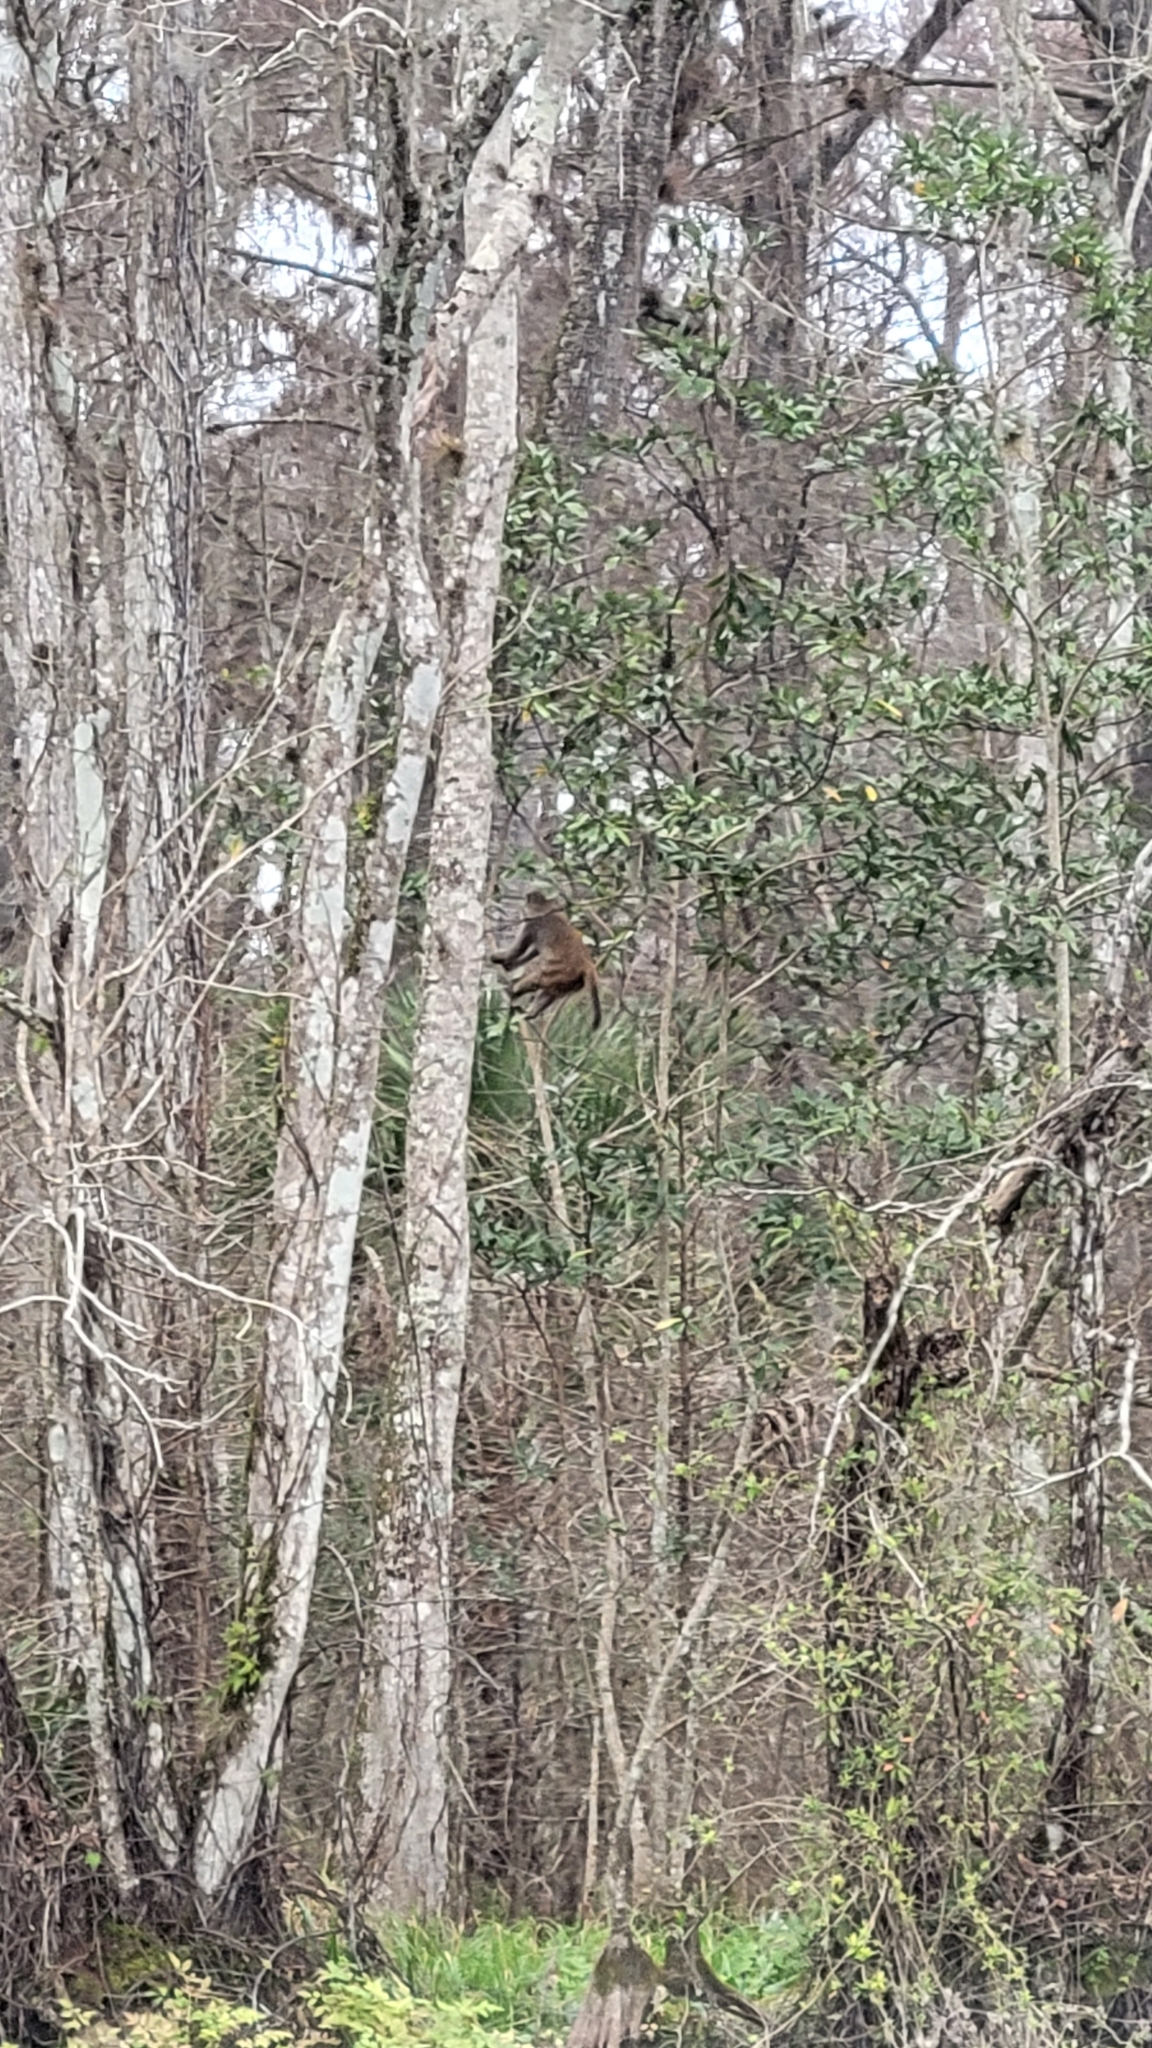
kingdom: Animalia
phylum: Chordata
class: Mammalia
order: Primates
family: Cercopithecidae
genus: Macaca
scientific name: Macaca mulatta
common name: Rhesus monkey
